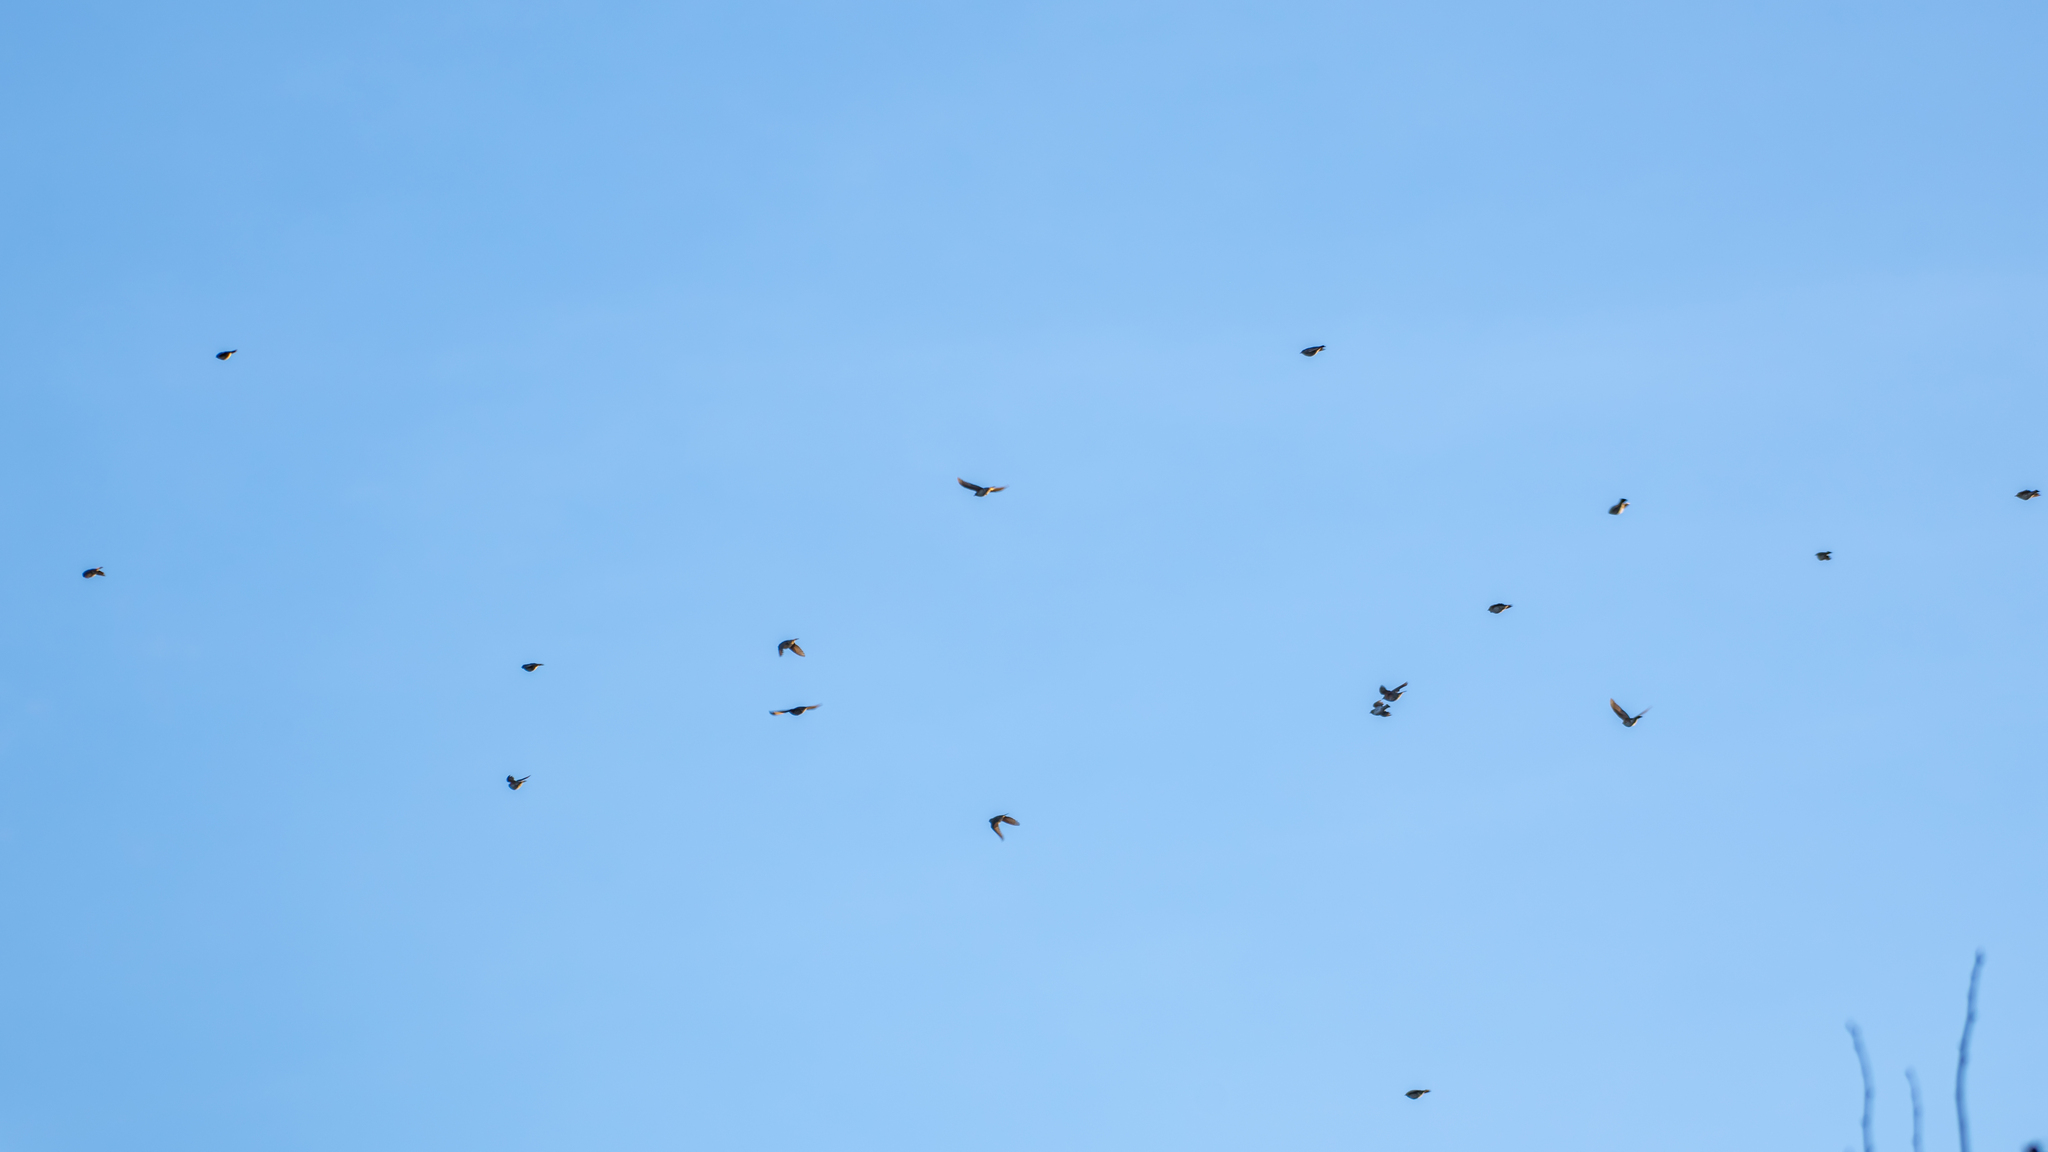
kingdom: Animalia
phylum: Chordata
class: Aves
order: Passeriformes
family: Turdidae
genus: Turdus
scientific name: Turdus iliacus
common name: Redwing
